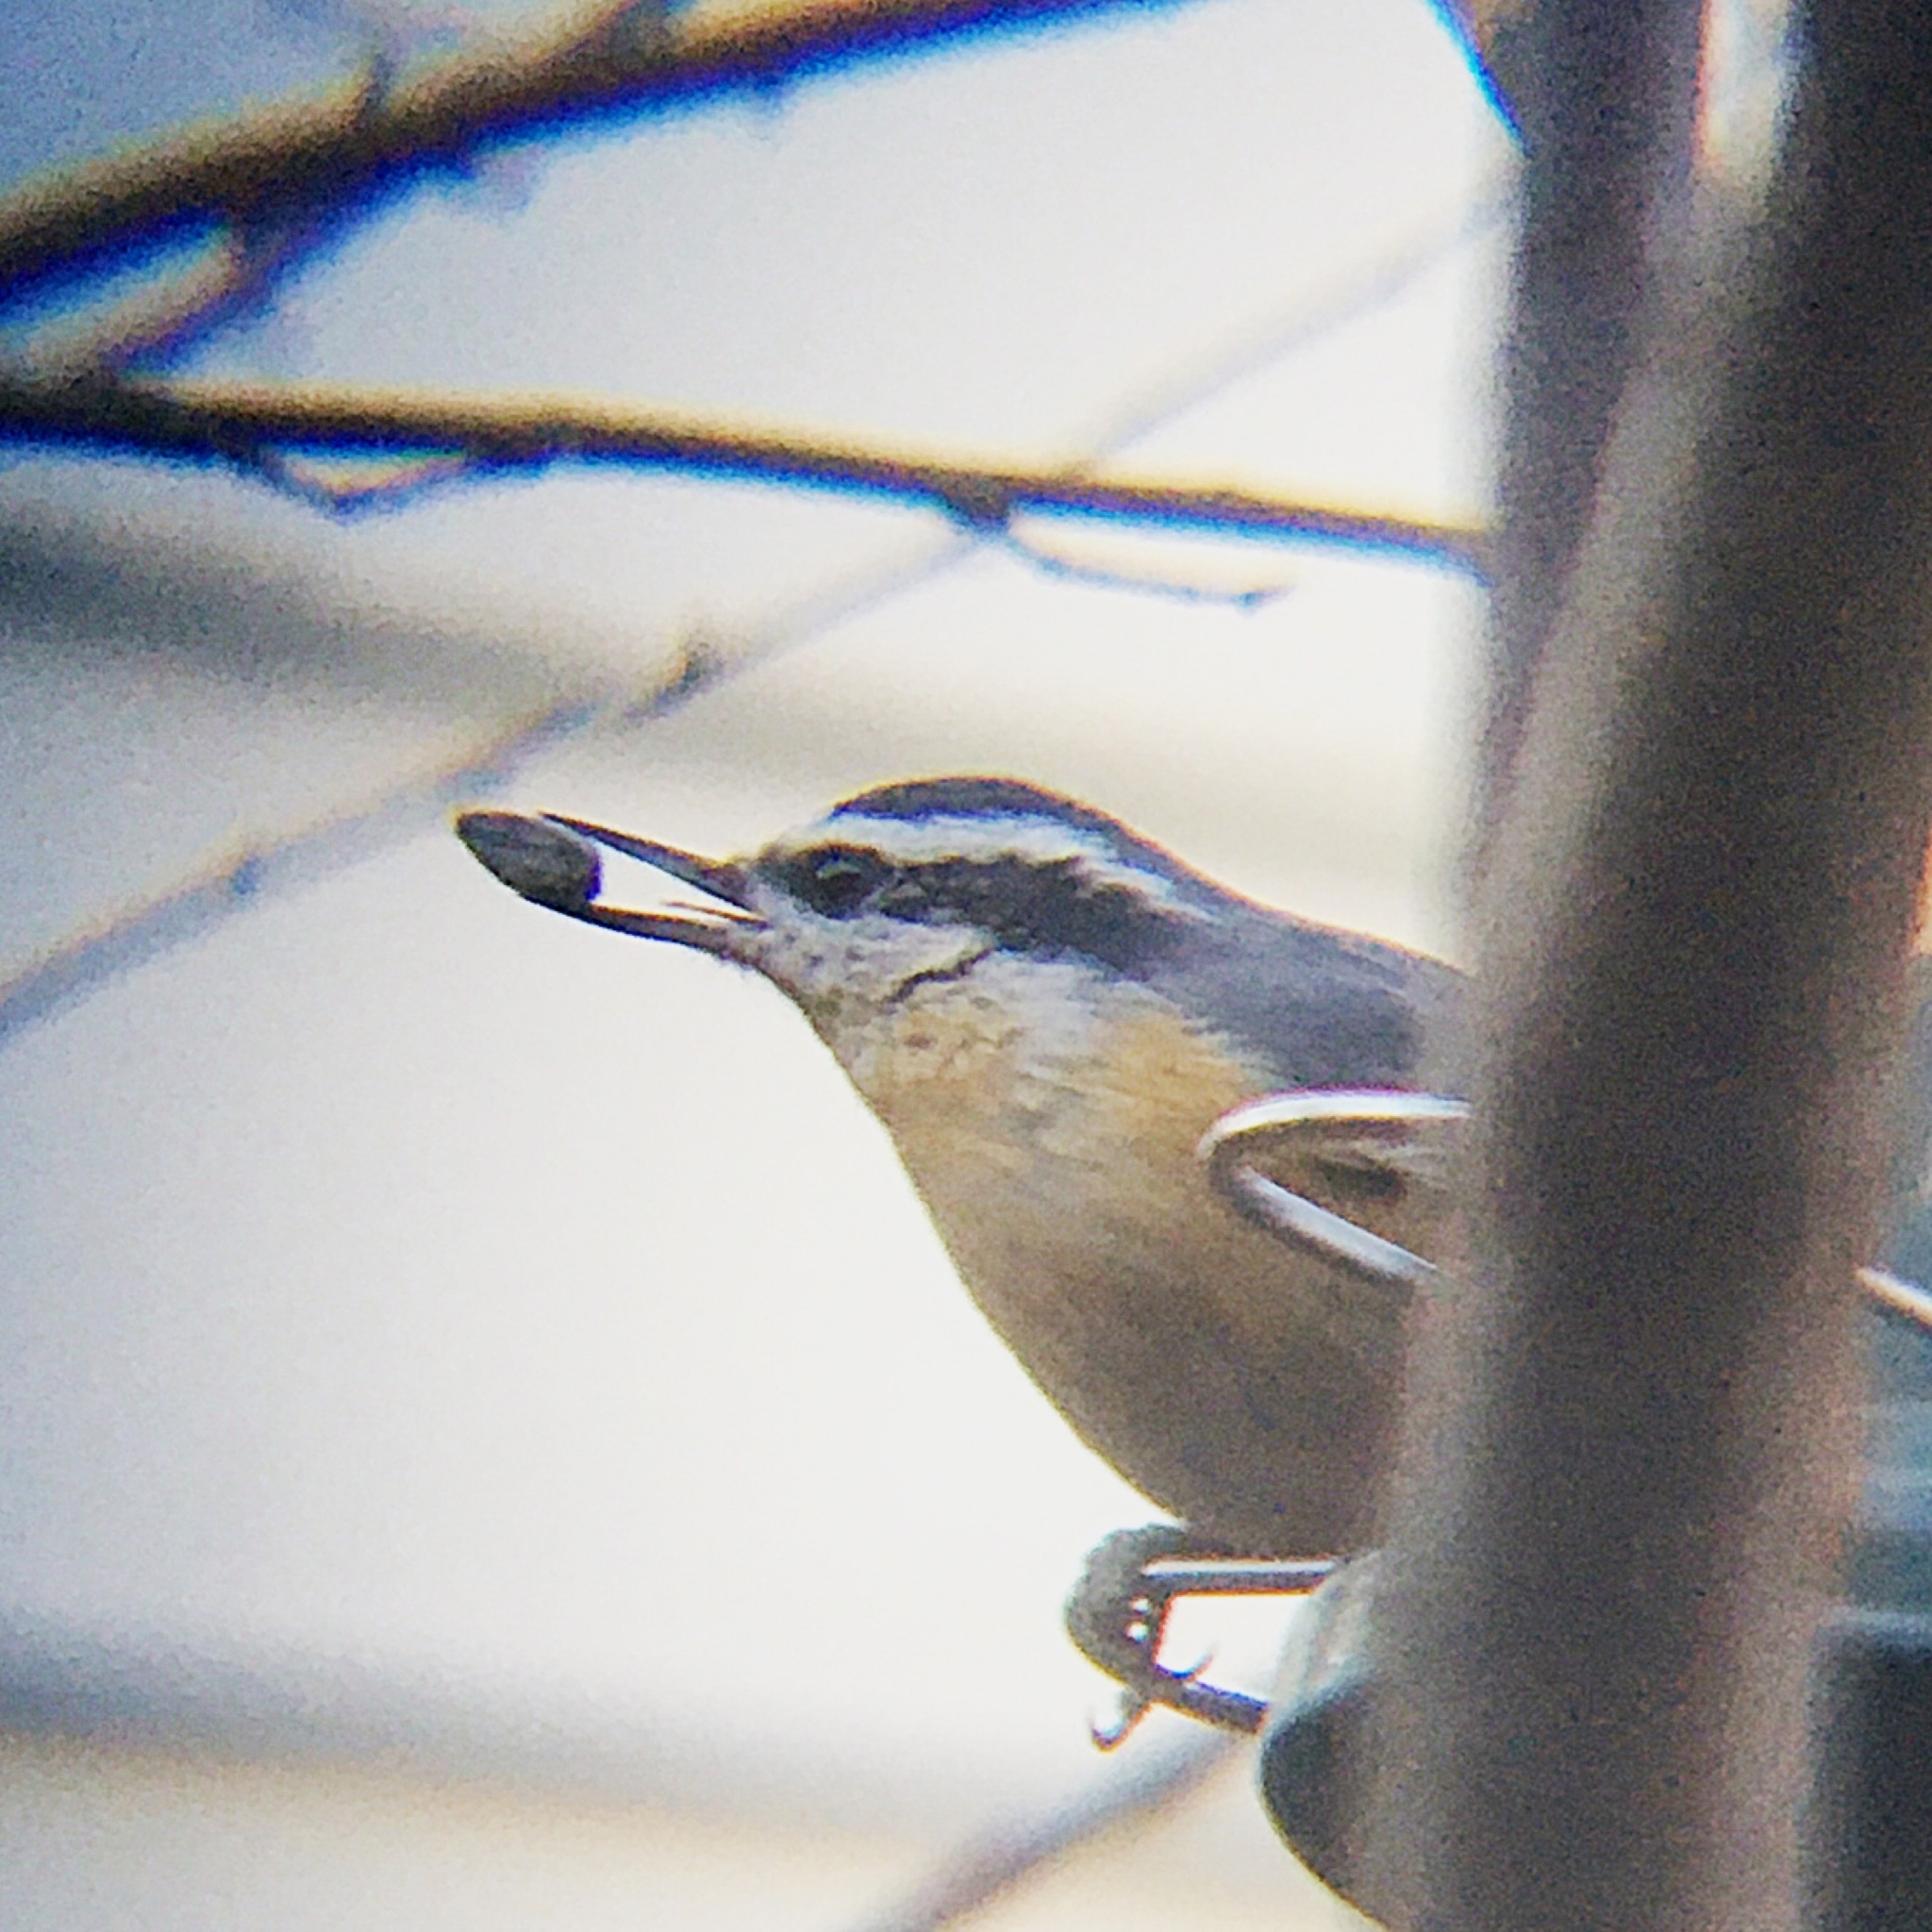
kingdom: Animalia
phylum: Chordata
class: Aves
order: Passeriformes
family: Sittidae
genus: Sitta
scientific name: Sitta canadensis
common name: Red-breasted nuthatch
